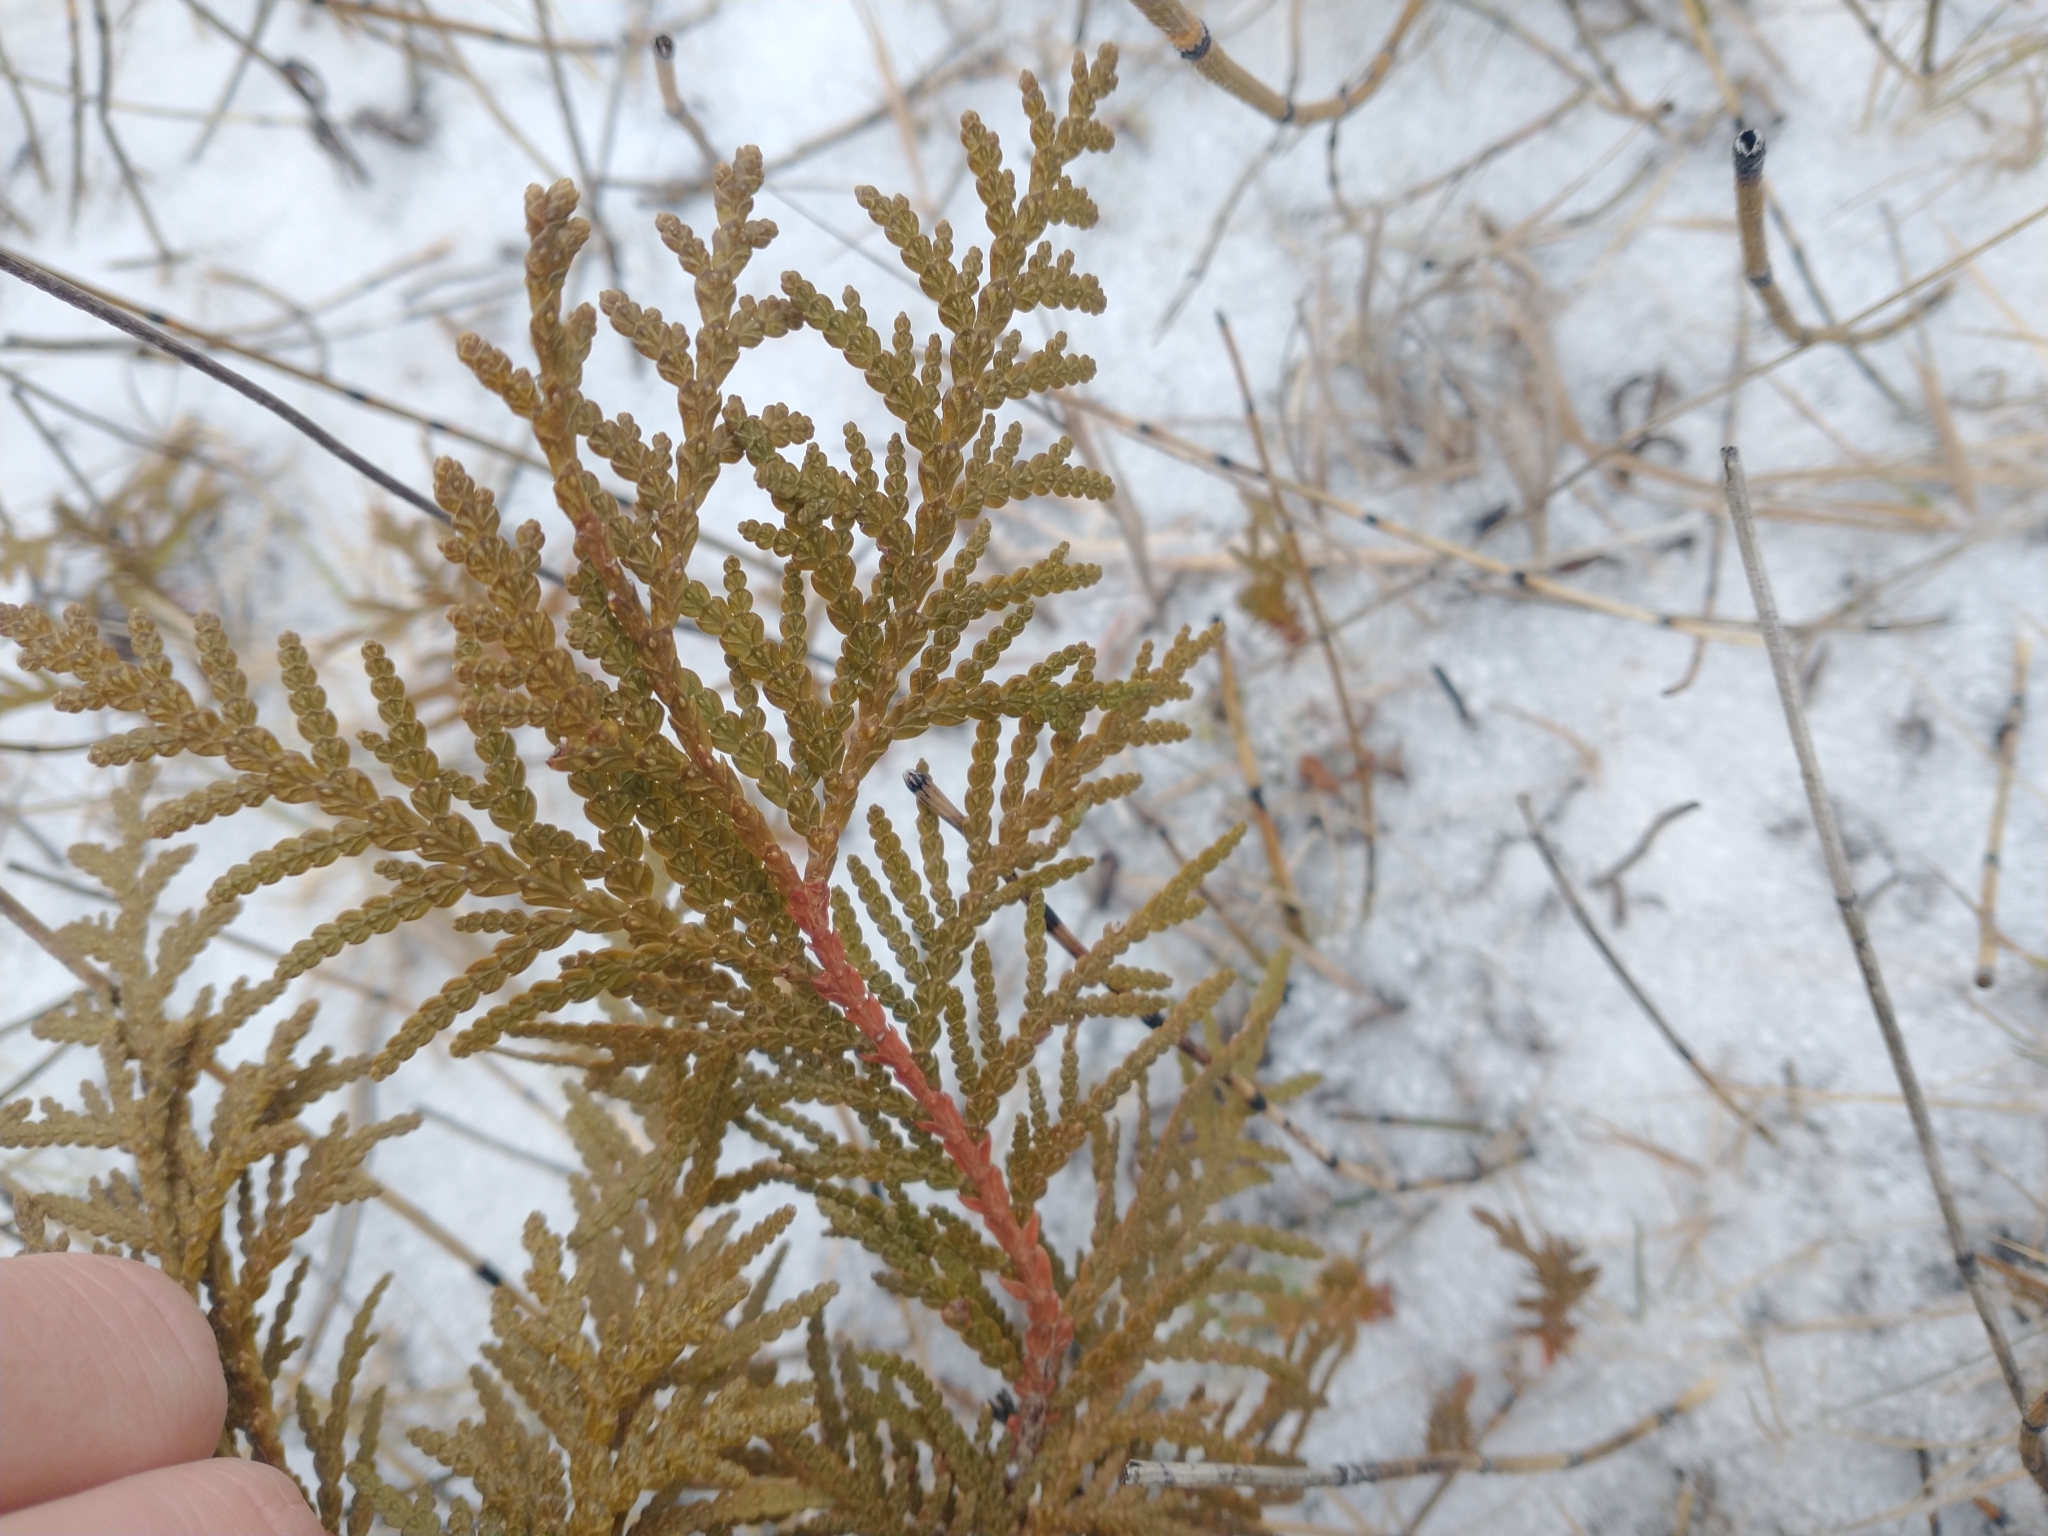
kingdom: Plantae
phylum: Tracheophyta
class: Pinopsida
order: Pinales
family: Cupressaceae
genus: Thuja
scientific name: Thuja occidentalis
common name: Northern white-cedar
